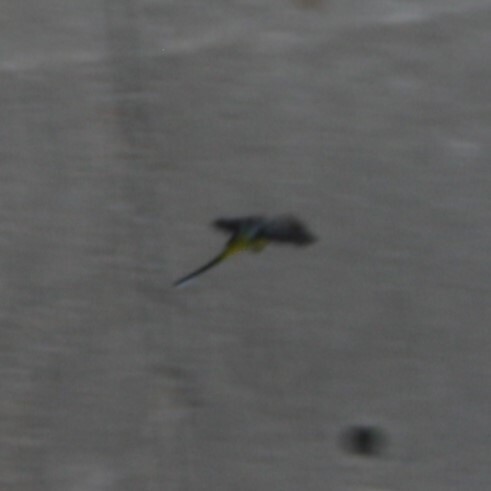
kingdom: Animalia
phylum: Chordata
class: Aves
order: Passeriformes
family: Motacillidae
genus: Motacilla
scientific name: Motacilla cinerea
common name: Grey wagtail
